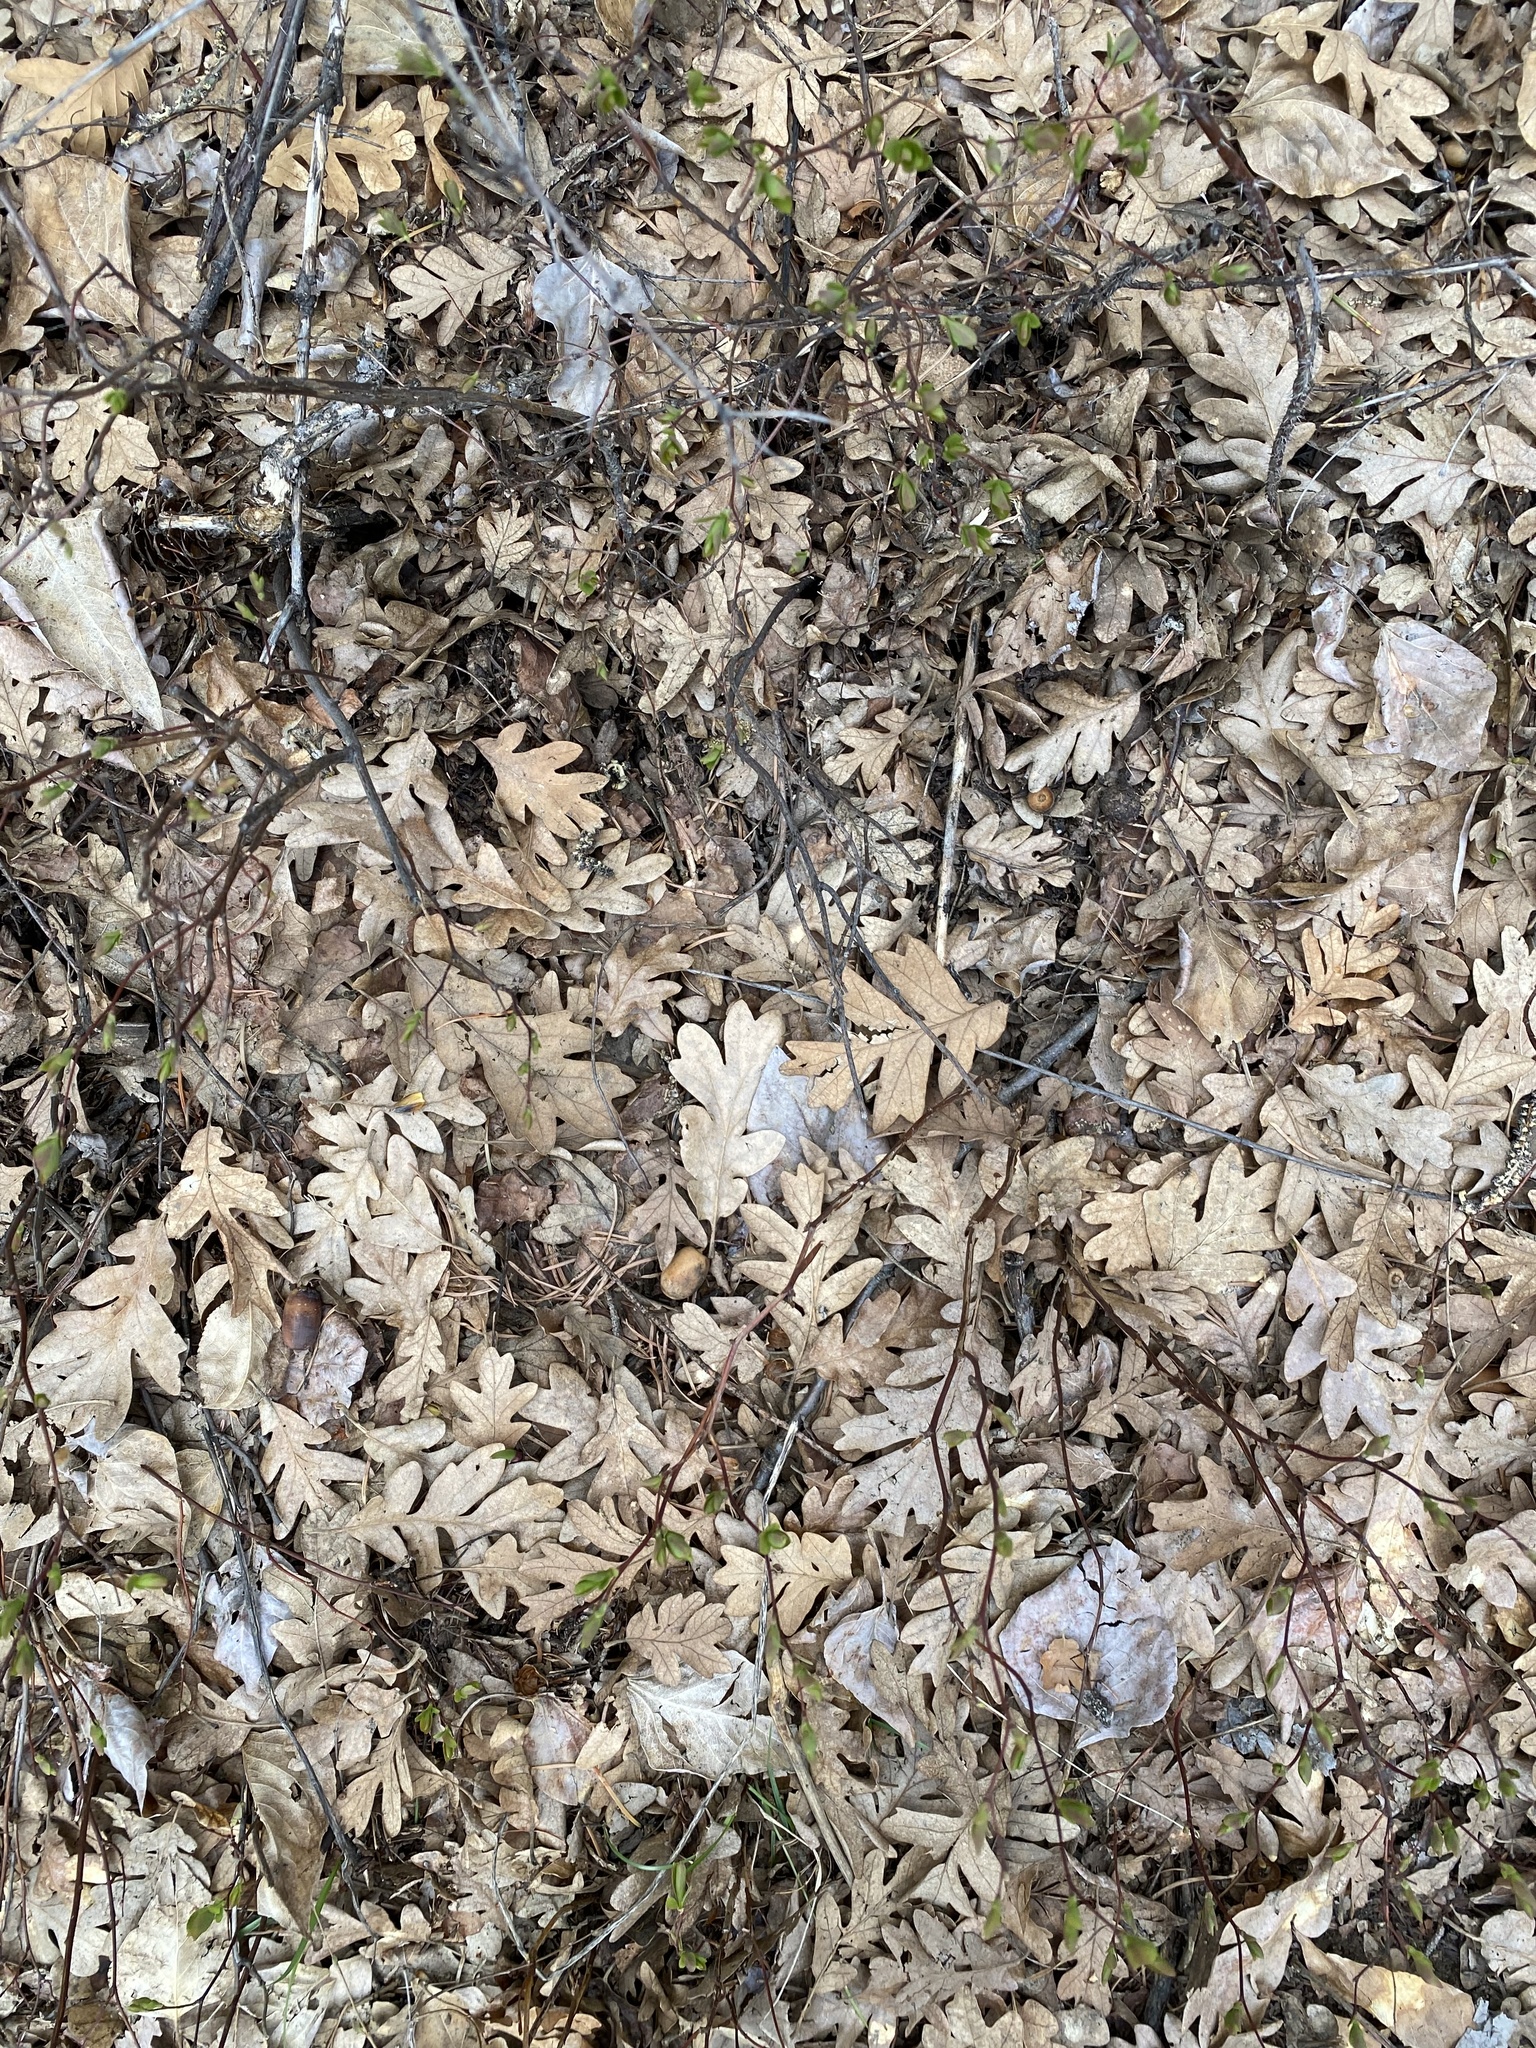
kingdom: Plantae
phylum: Tracheophyta
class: Magnoliopsida
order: Fagales
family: Fagaceae
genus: Quercus
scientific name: Quercus garryana
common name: Garry oak
